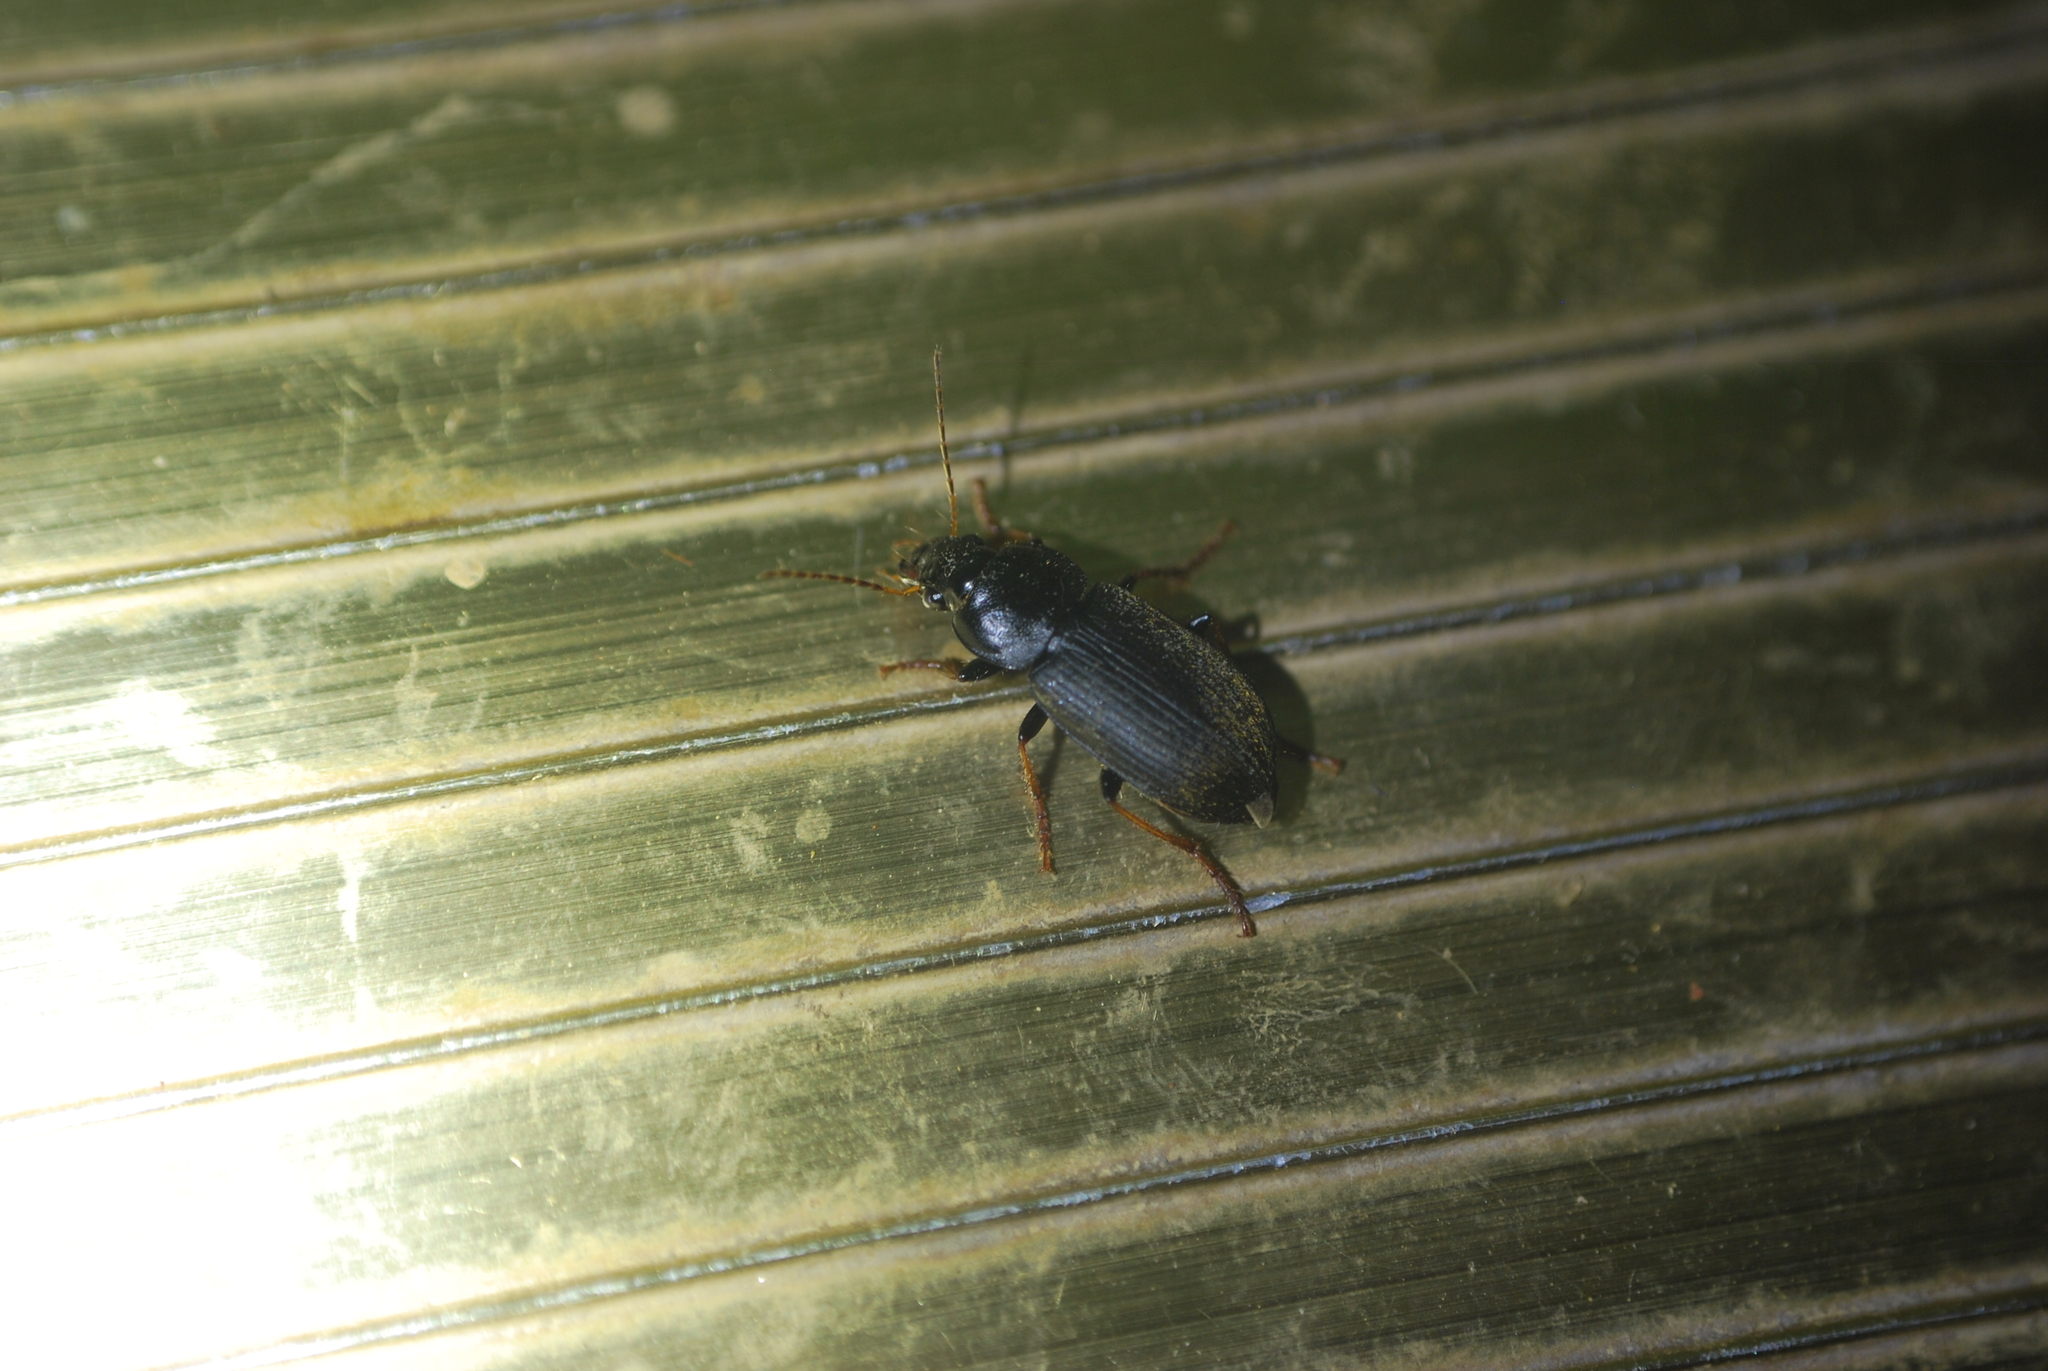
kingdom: Animalia
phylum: Arthropoda
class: Insecta
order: Coleoptera
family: Carabidae
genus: Amphasia
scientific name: Amphasia sericea
